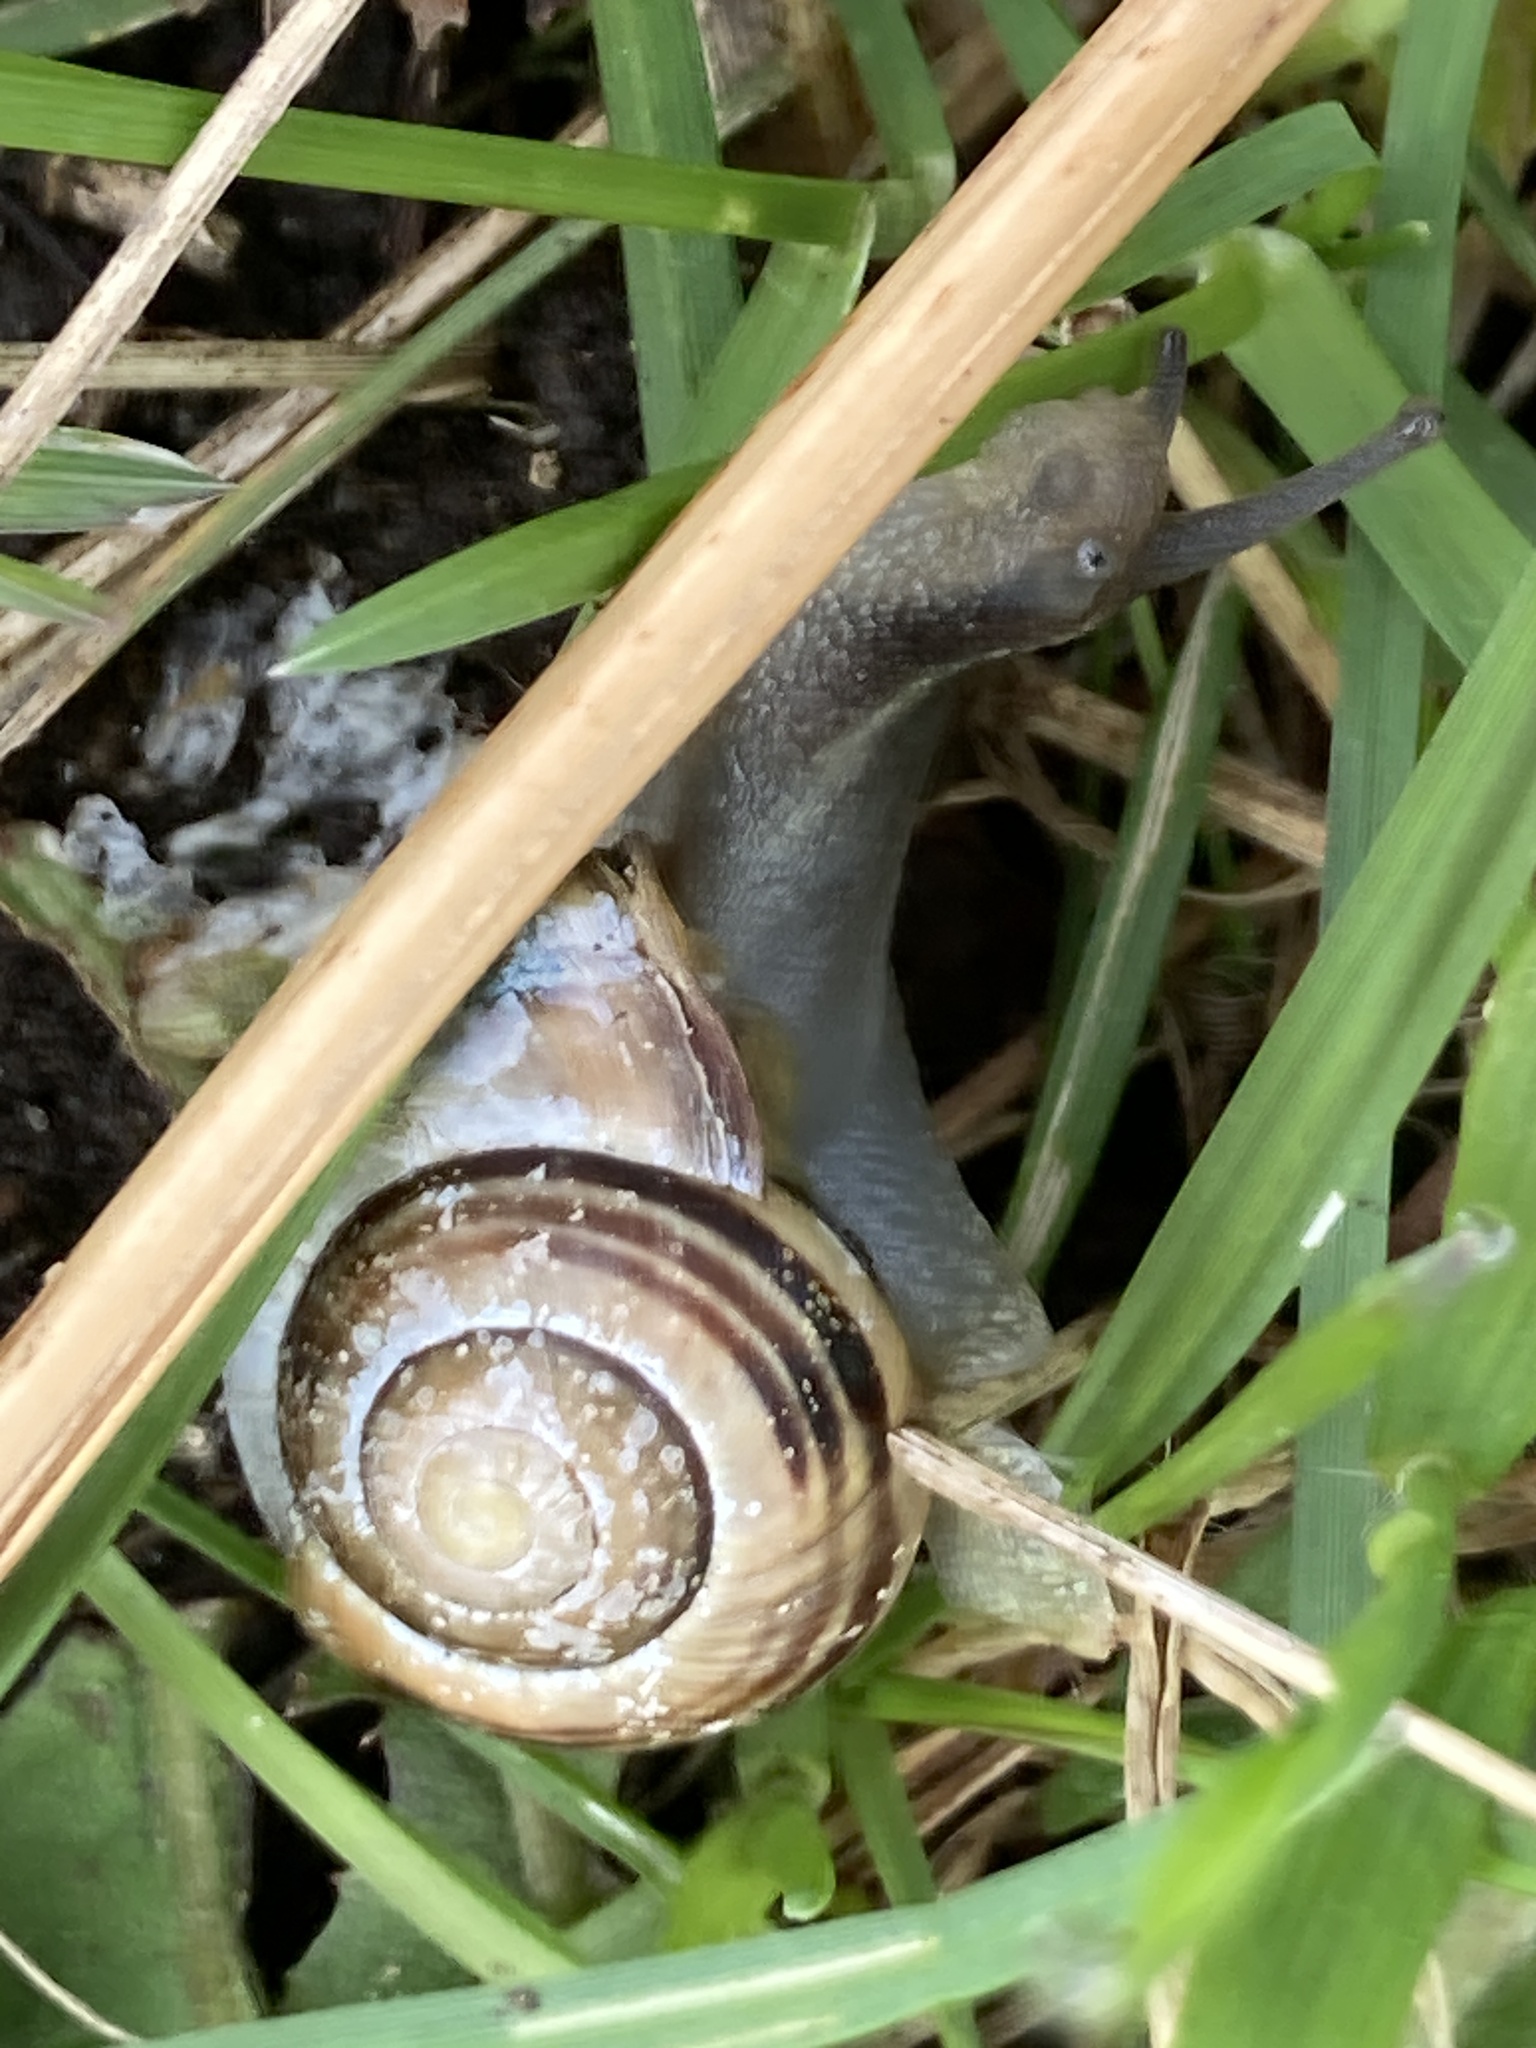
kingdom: Animalia
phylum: Mollusca
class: Gastropoda
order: Stylommatophora
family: Helicidae
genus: Cepaea
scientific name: Cepaea nemoralis
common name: Grovesnail
